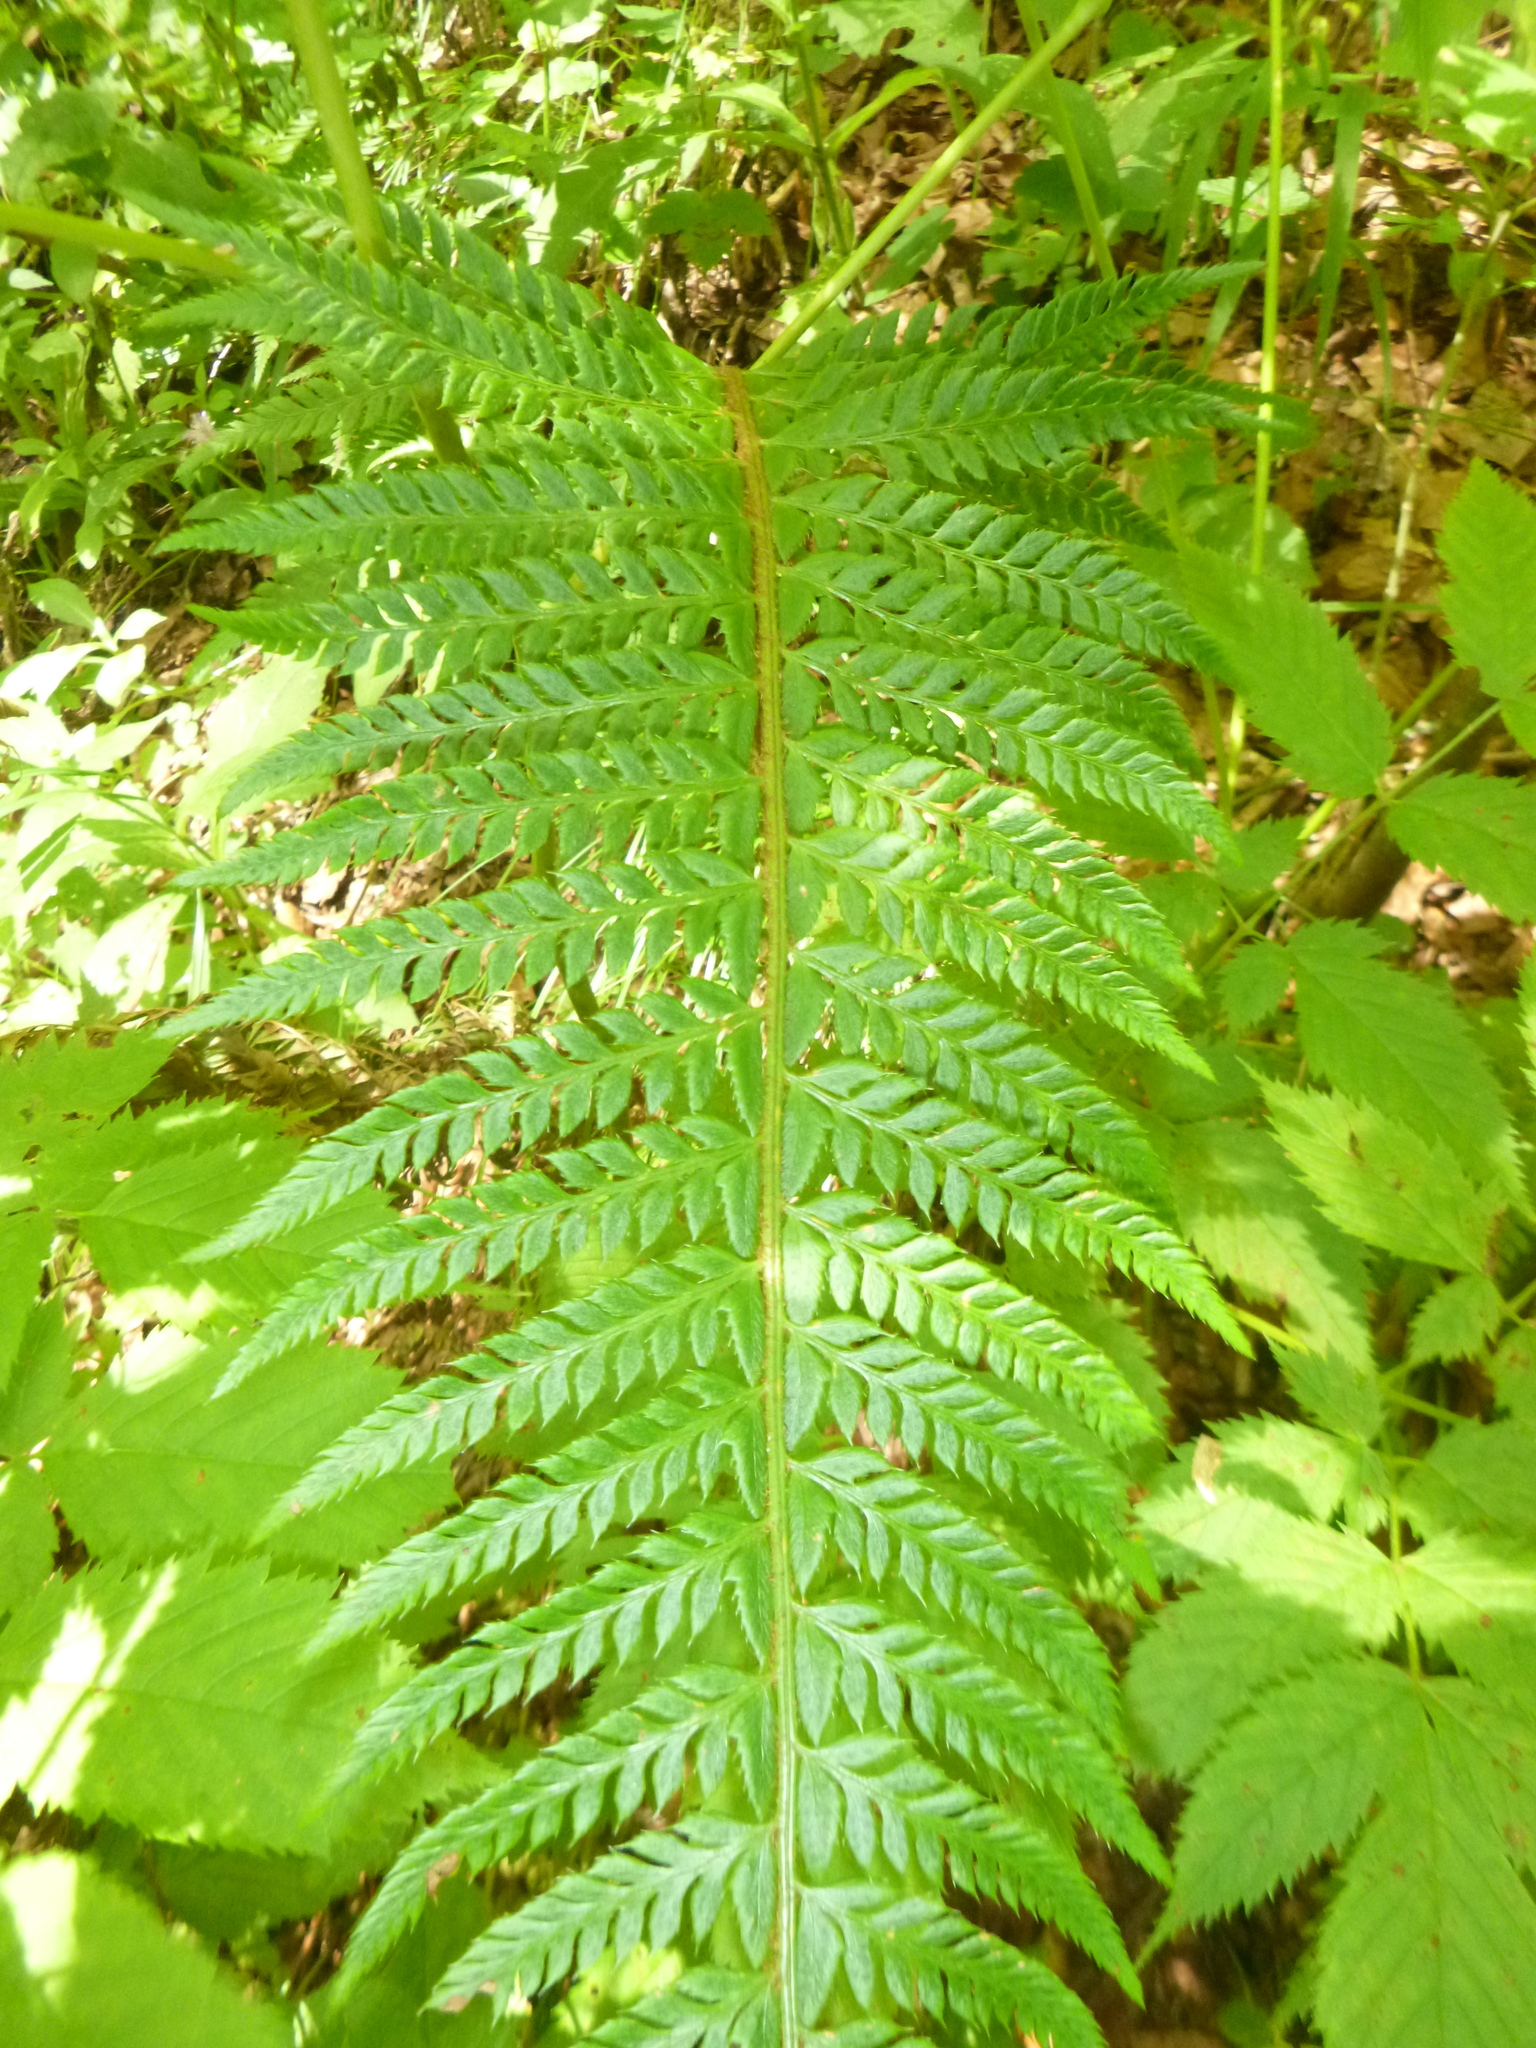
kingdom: Plantae
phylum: Tracheophyta
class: Polypodiopsida
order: Polypodiales
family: Dryopteridaceae
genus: Polystichum
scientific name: Polystichum aculeatum
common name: Hard shield-fern
